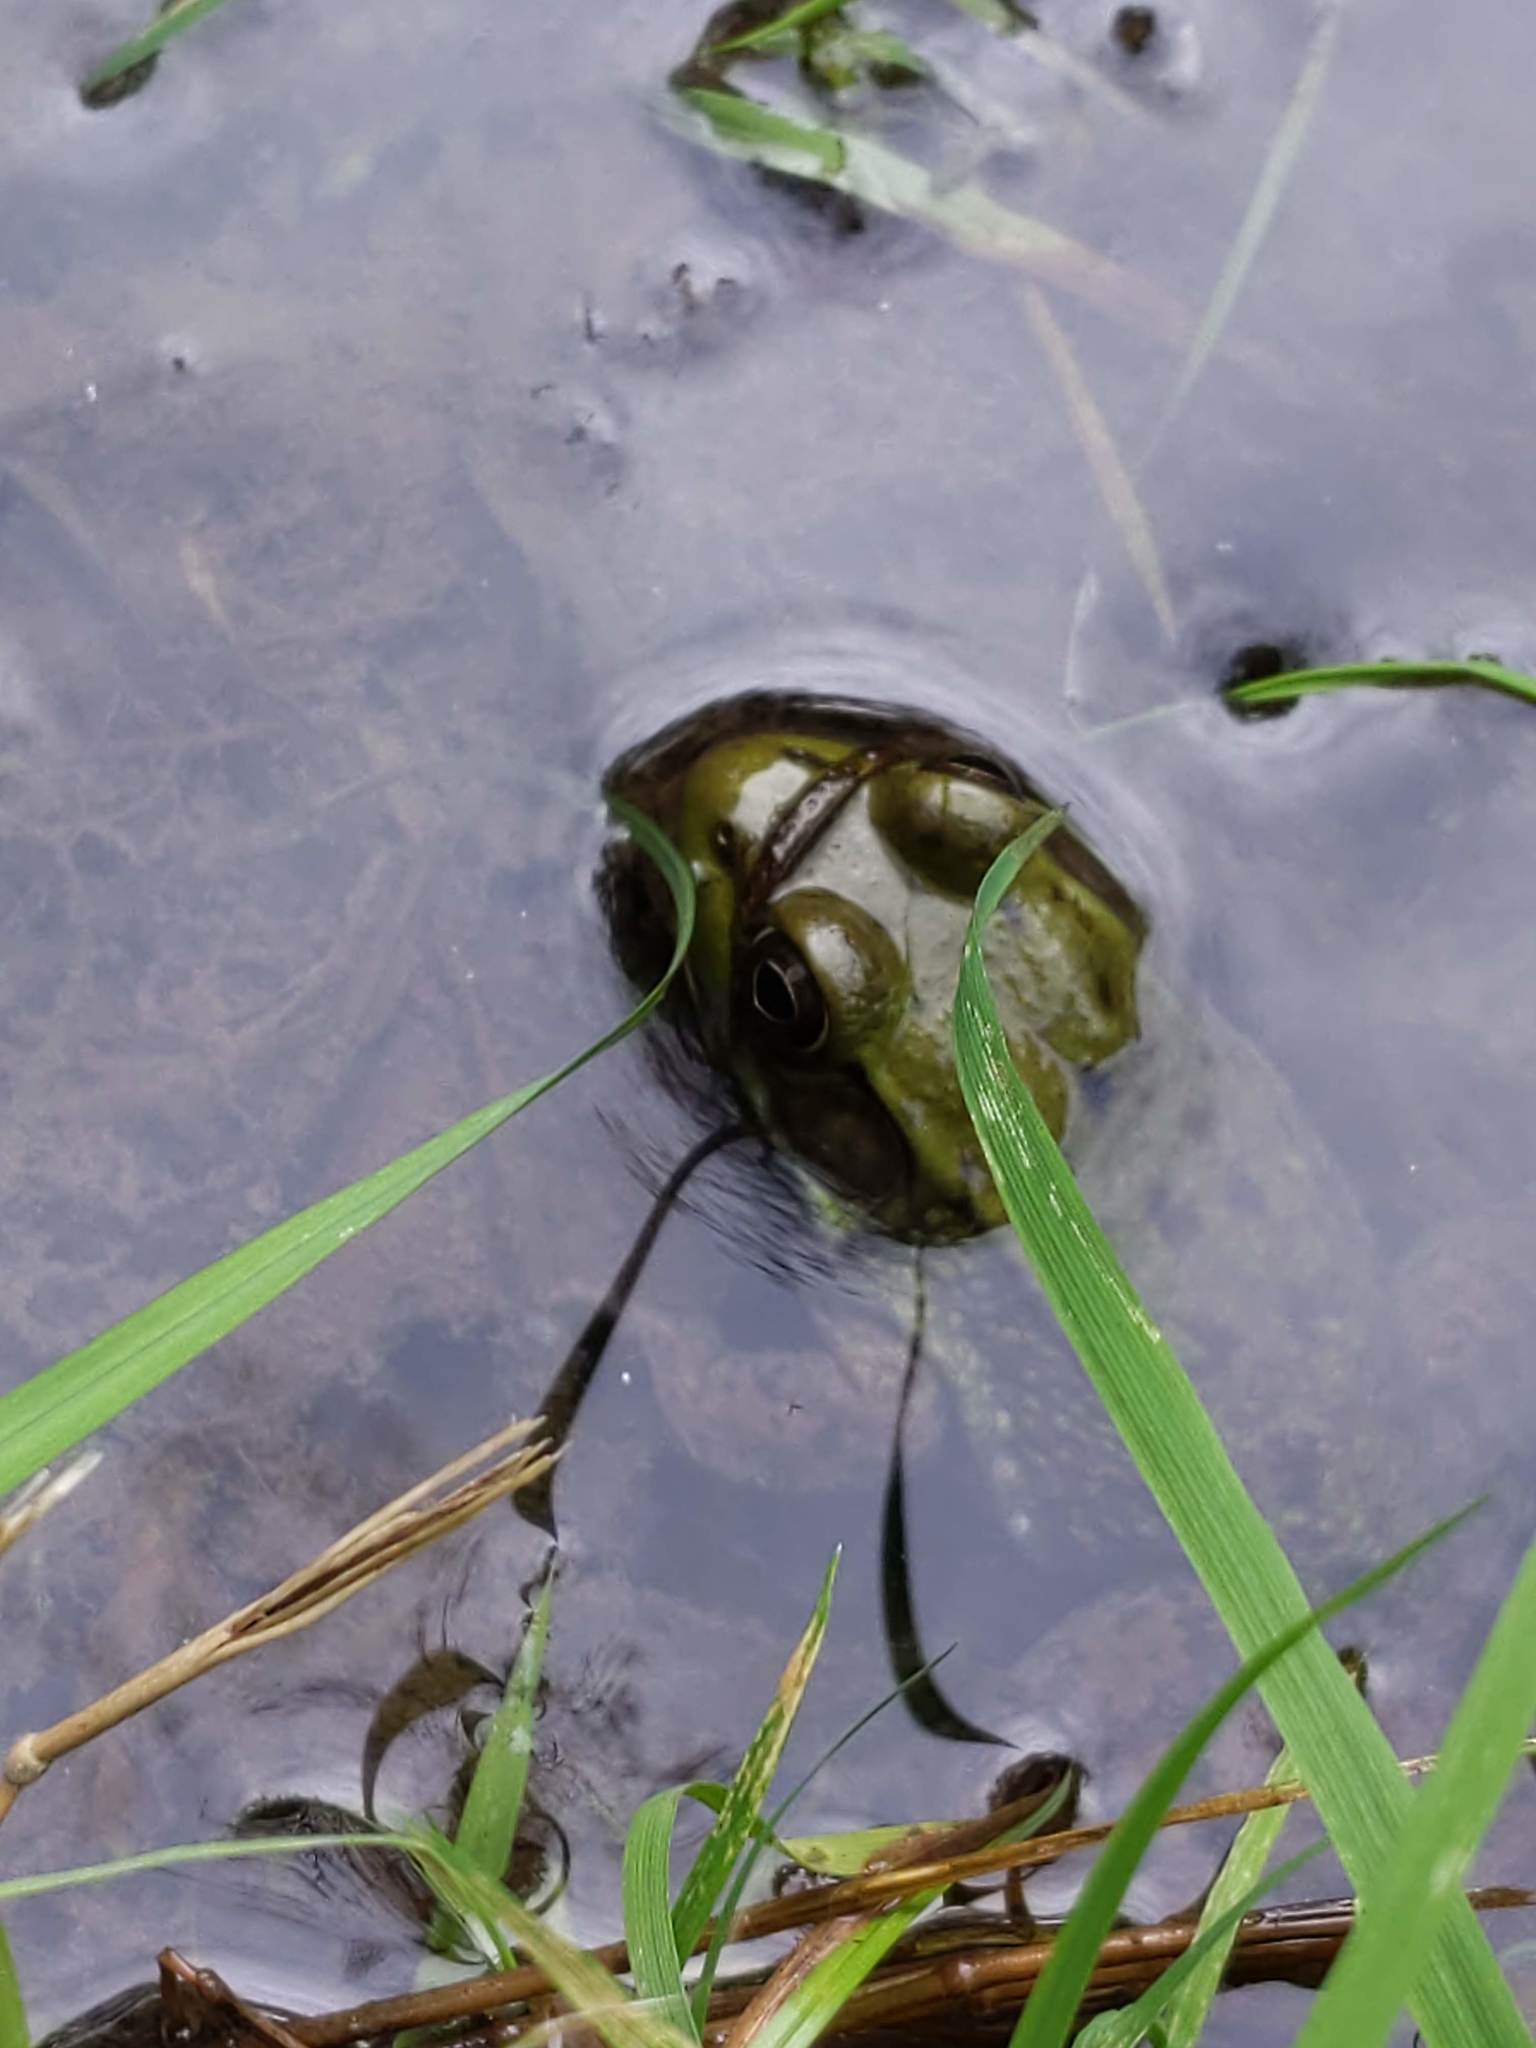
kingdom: Animalia
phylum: Chordata
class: Amphibia
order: Anura
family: Ranidae
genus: Lithobates
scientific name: Lithobates clamitans
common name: Green frog
